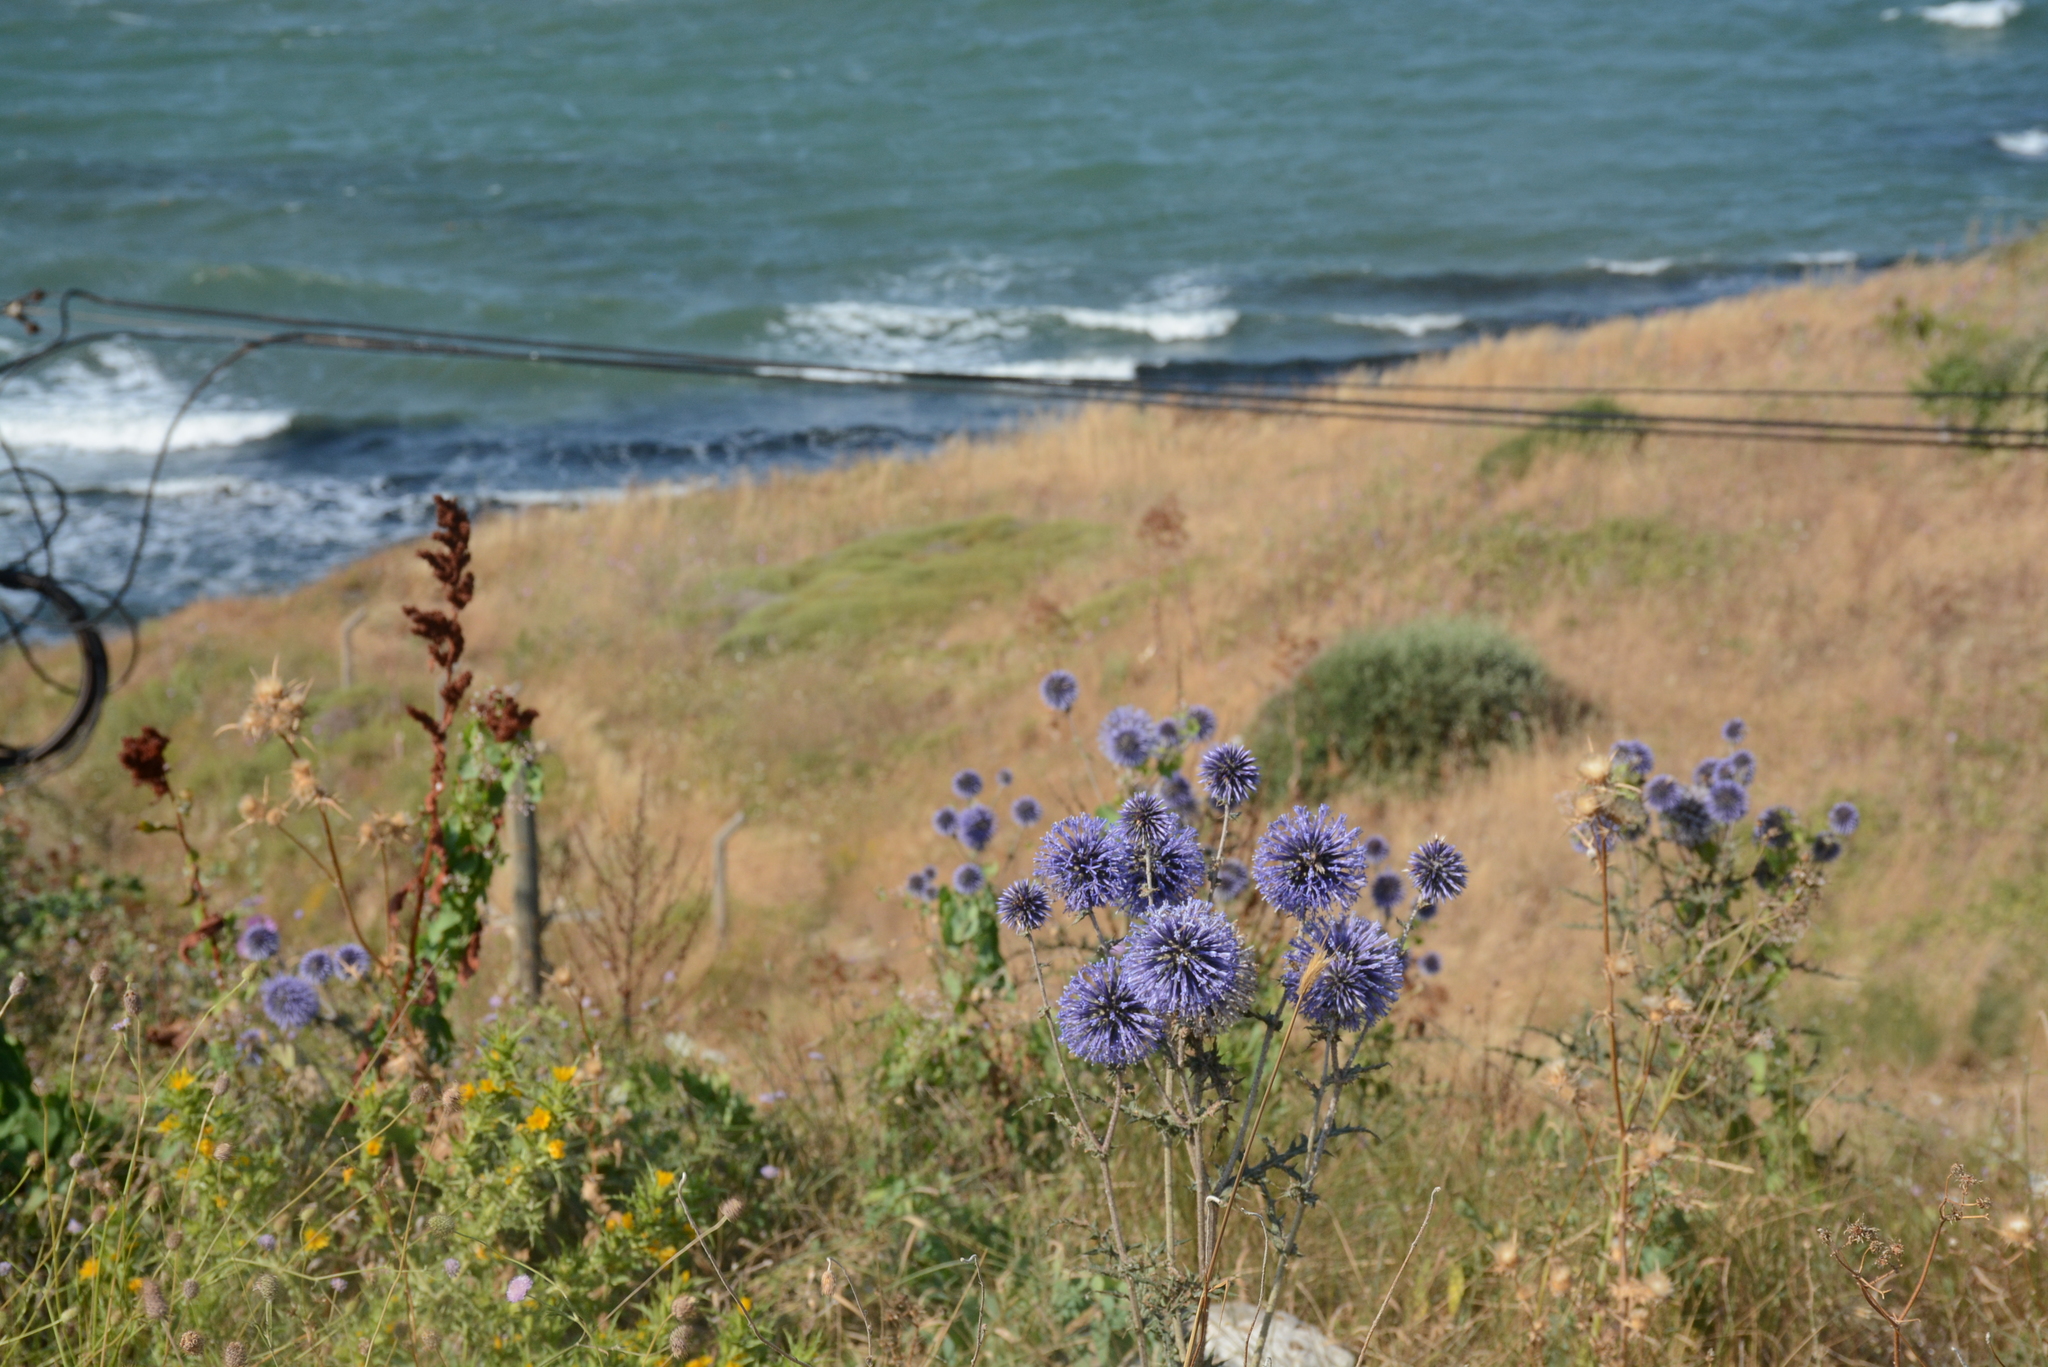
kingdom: Plantae
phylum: Tracheophyta
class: Magnoliopsida
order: Asterales
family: Asteraceae
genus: Echinops
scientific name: Echinops spinosissimus
